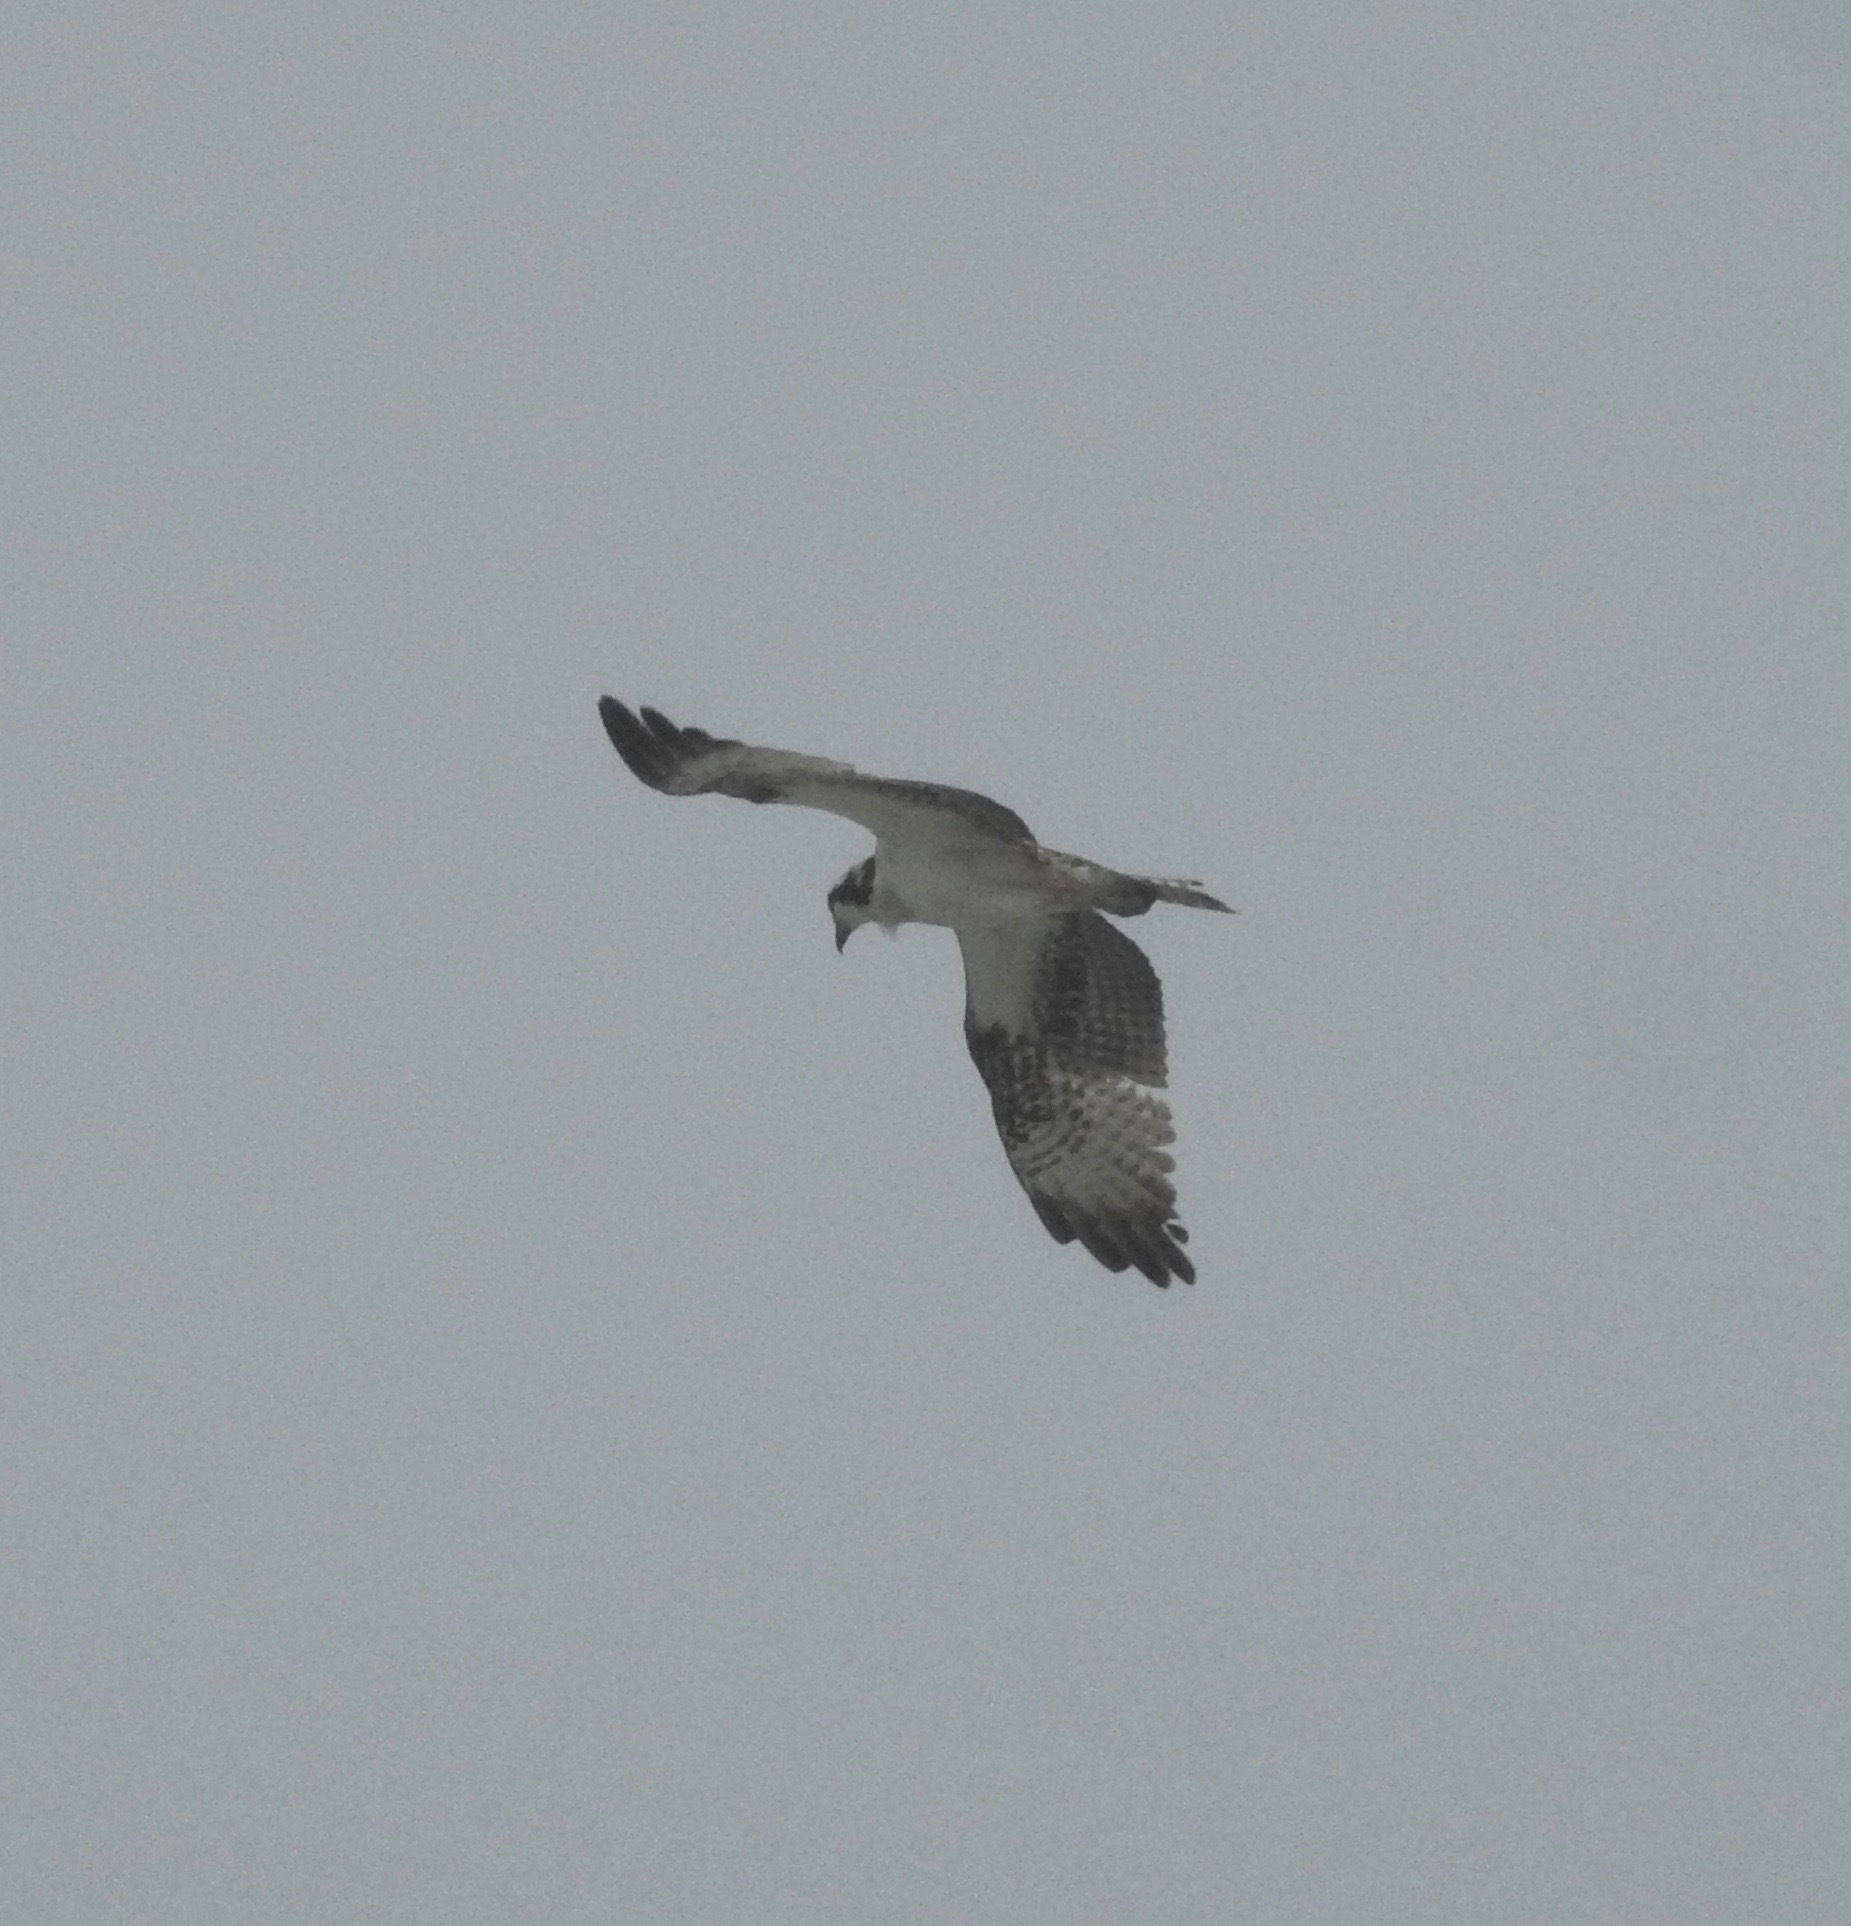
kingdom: Animalia
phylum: Chordata
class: Aves
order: Accipitriformes
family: Pandionidae
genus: Pandion
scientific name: Pandion haliaetus
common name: Osprey
